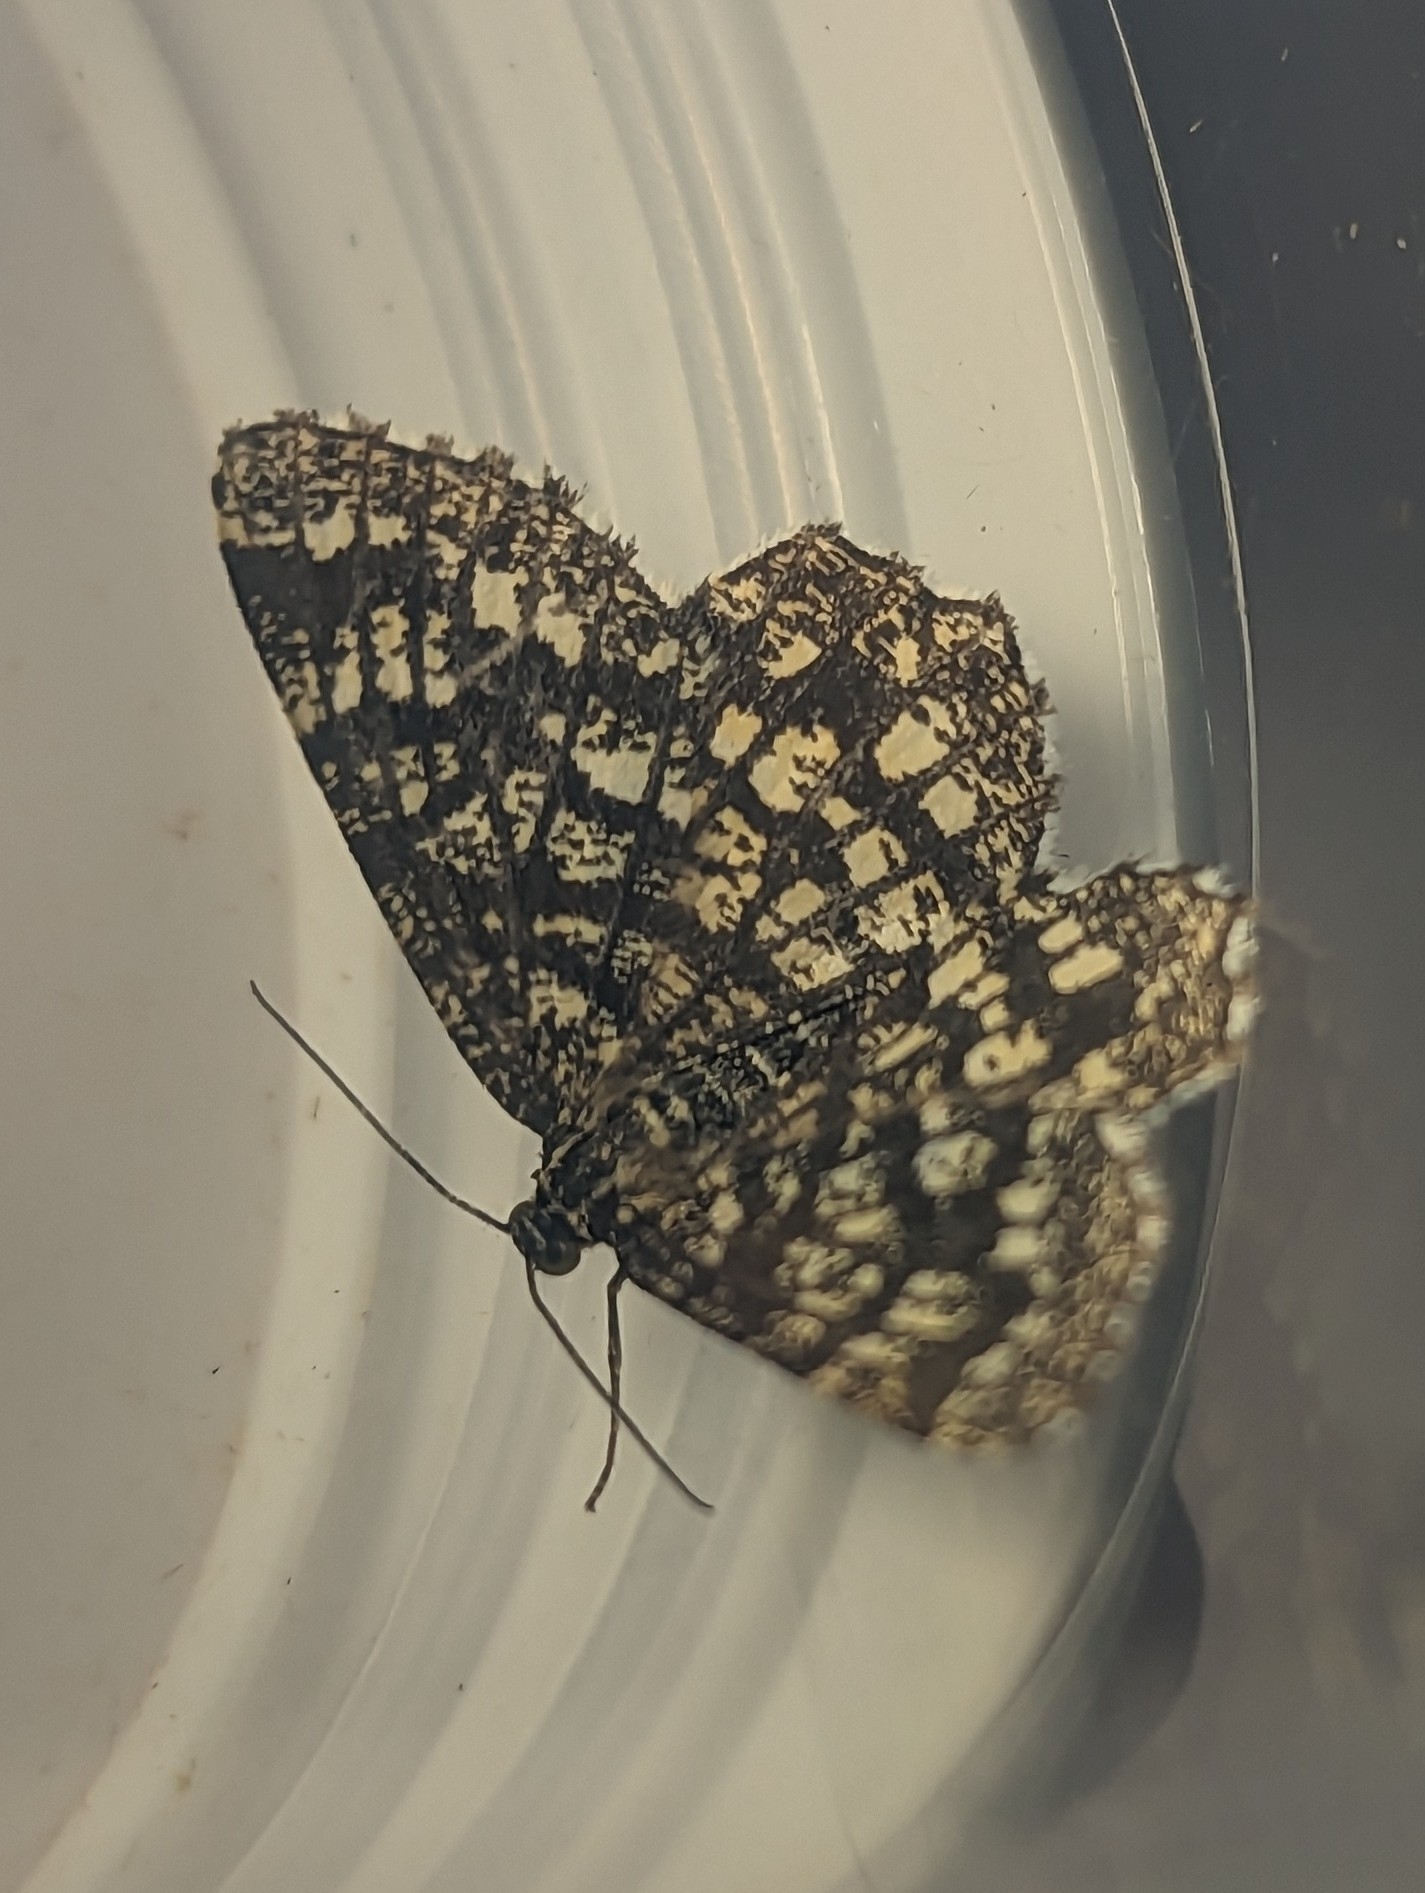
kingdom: Animalia
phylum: Arthropoda
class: Insecta
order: Lepidoptera
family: Geometridae
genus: Chiasmia
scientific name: Chiasmia clathrata
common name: Latticed heath
